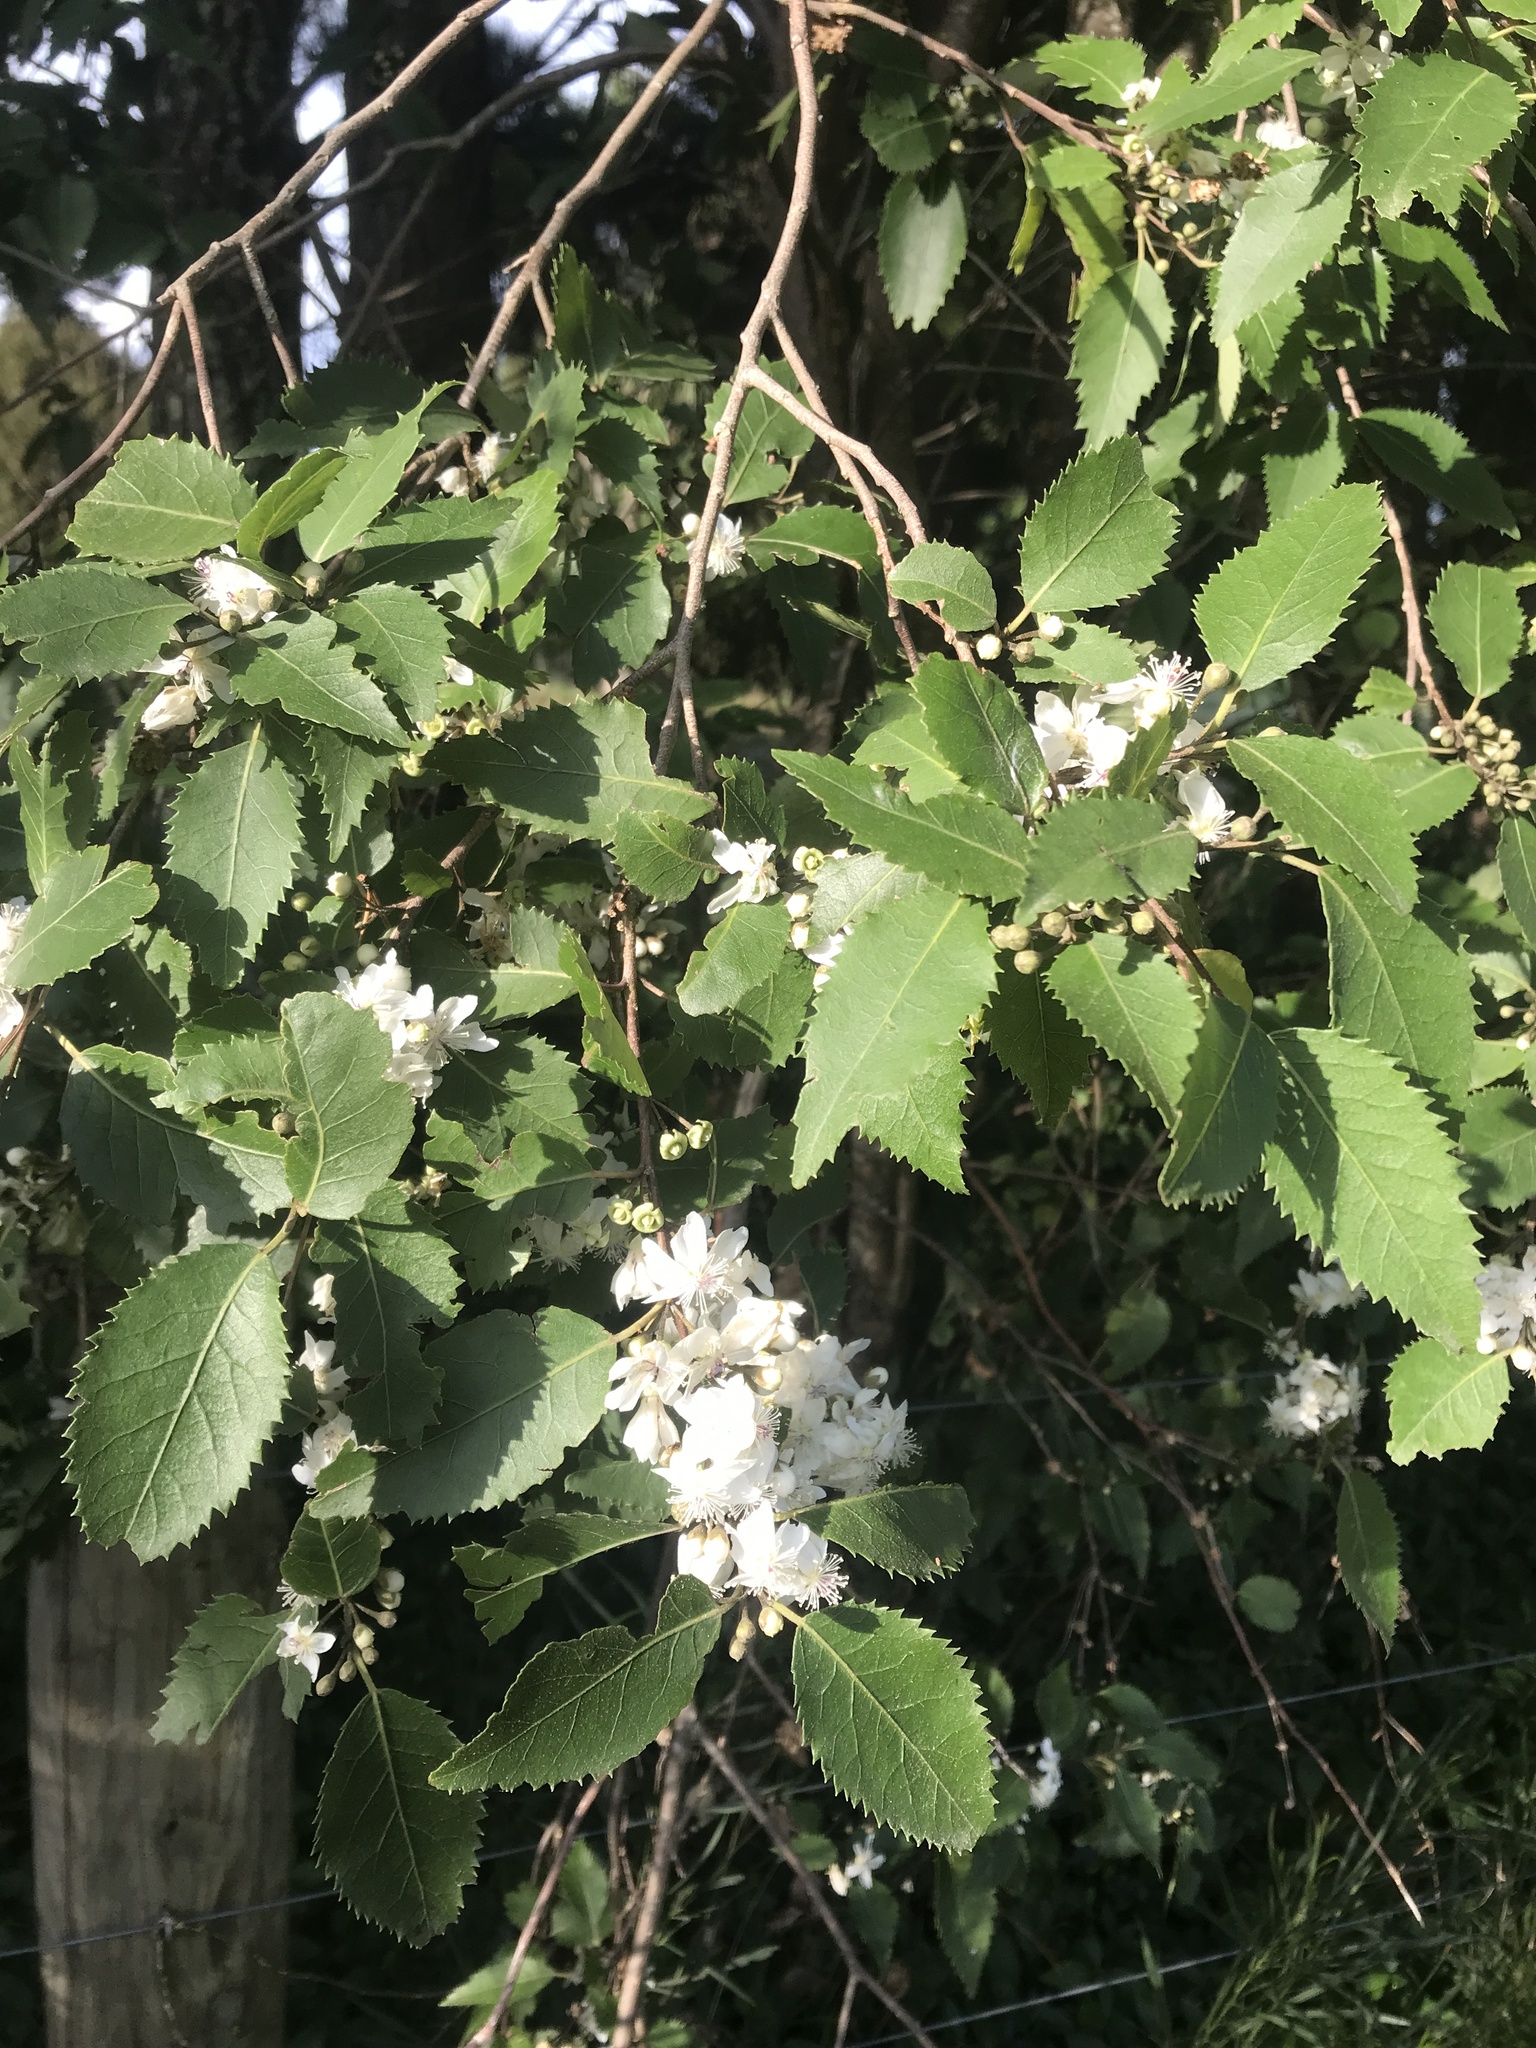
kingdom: Plantae
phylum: Tracheophyta
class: Magnoliopsida
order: Malvales
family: Malvaceae
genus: Hoheria
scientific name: Hoheria populnea
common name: Lacebark
